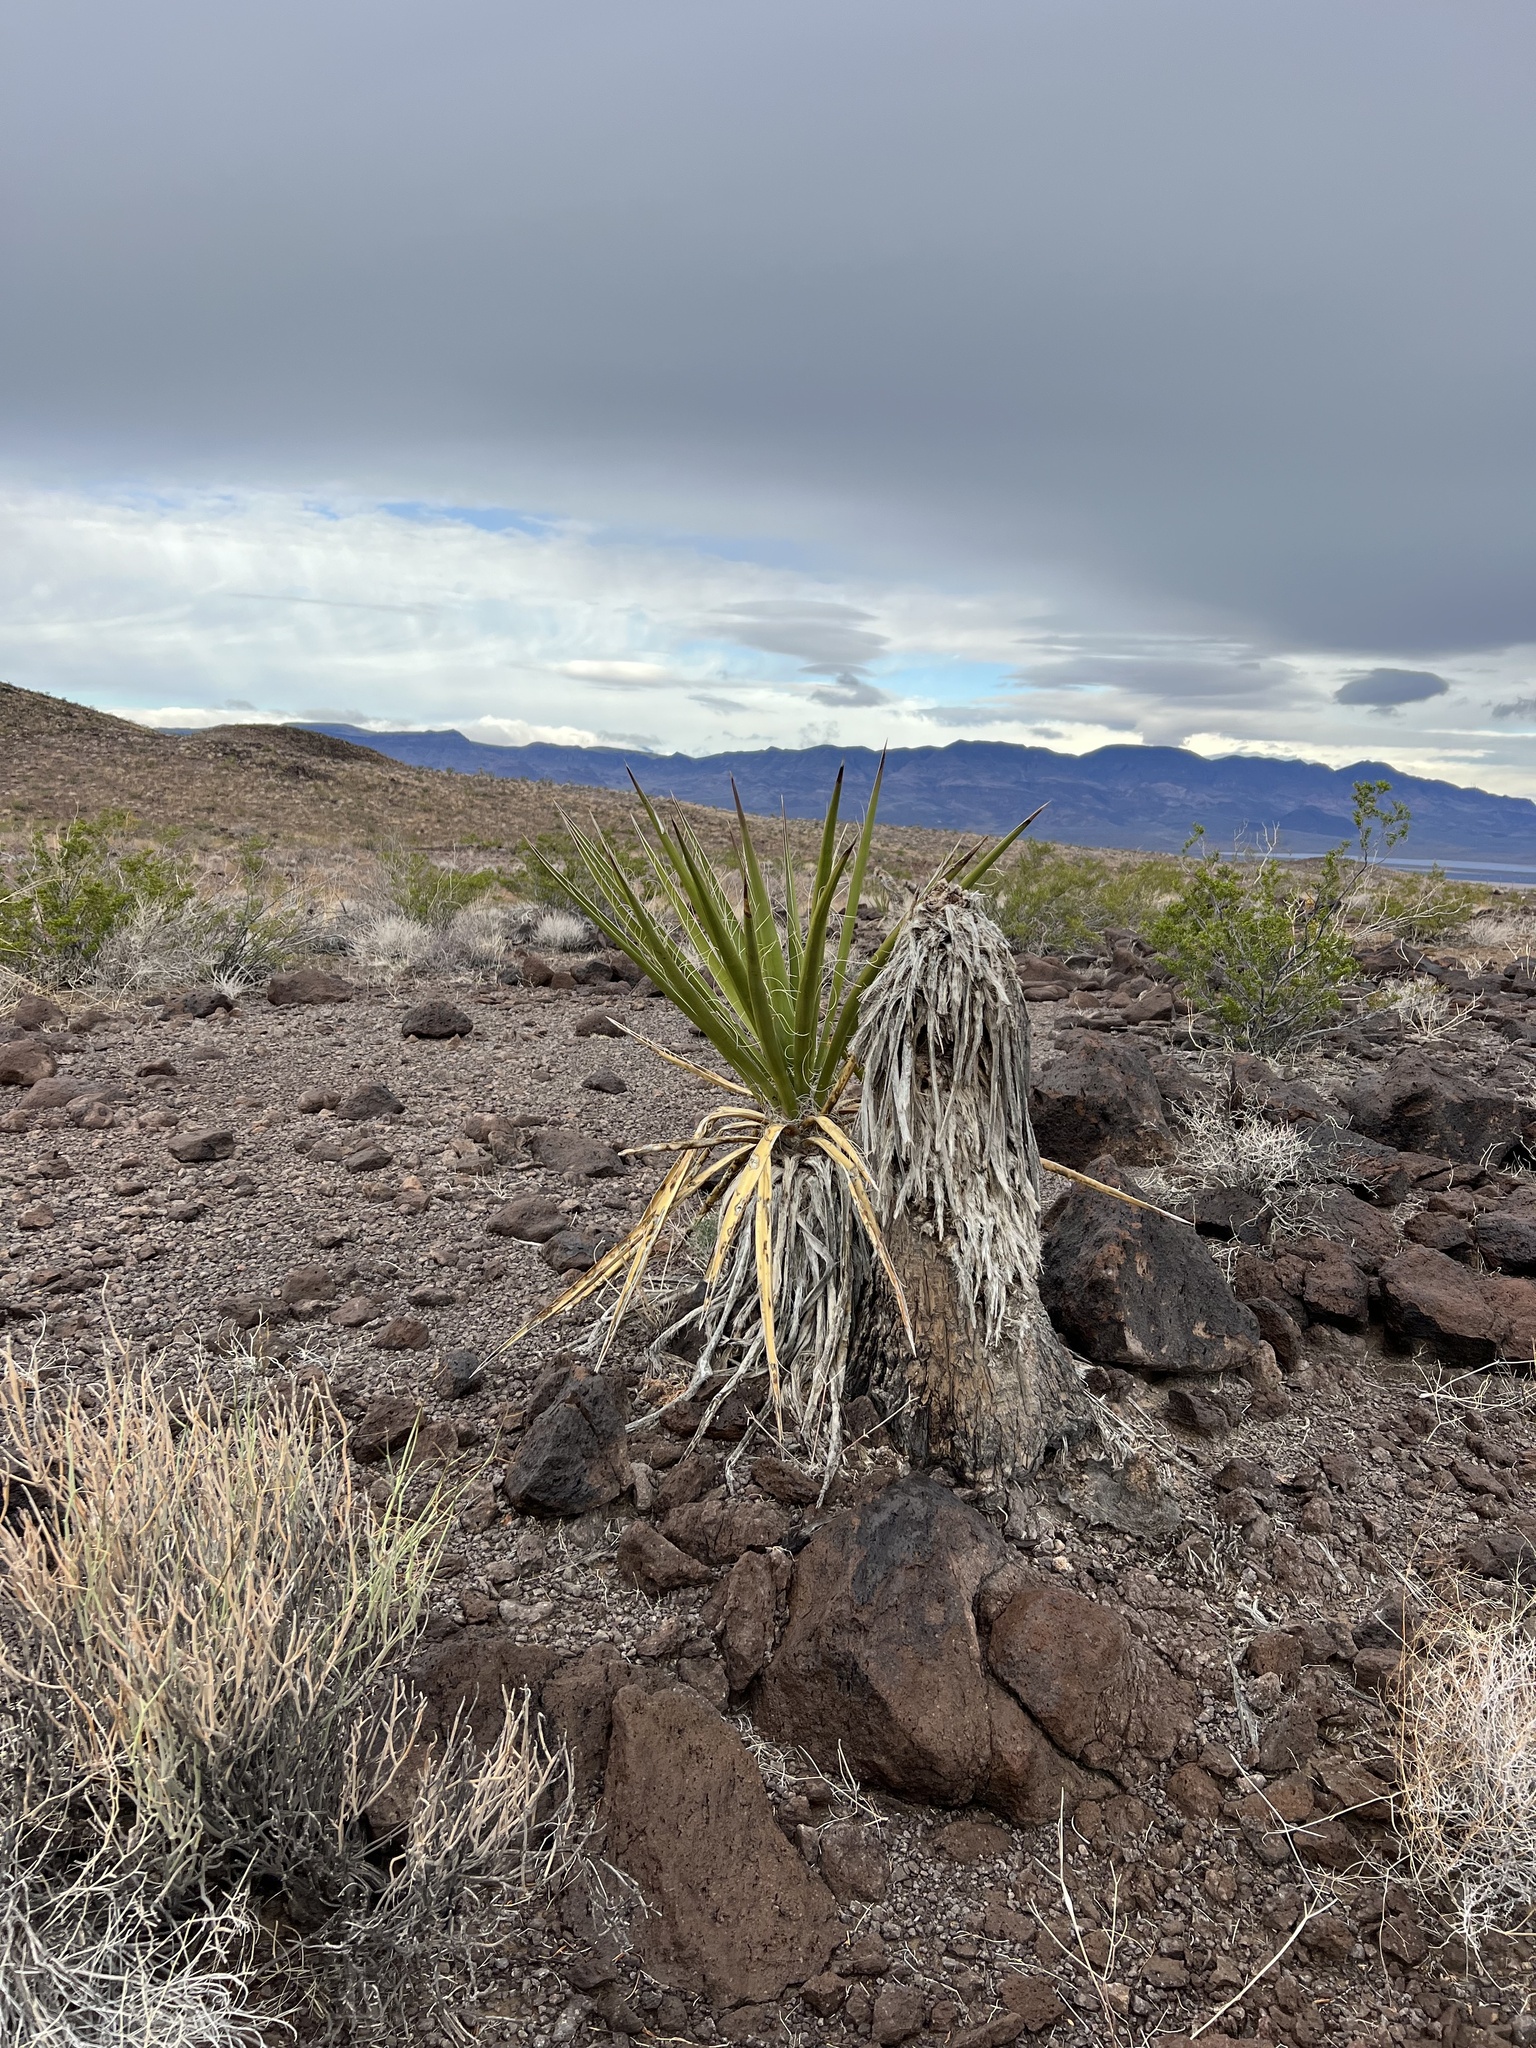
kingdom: Plantae
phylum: Tracheophyta
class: Liliopsida
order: Asparagales
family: Asparagaceae
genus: Yucca
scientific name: Yucca schidigera
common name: Mojave yucca
